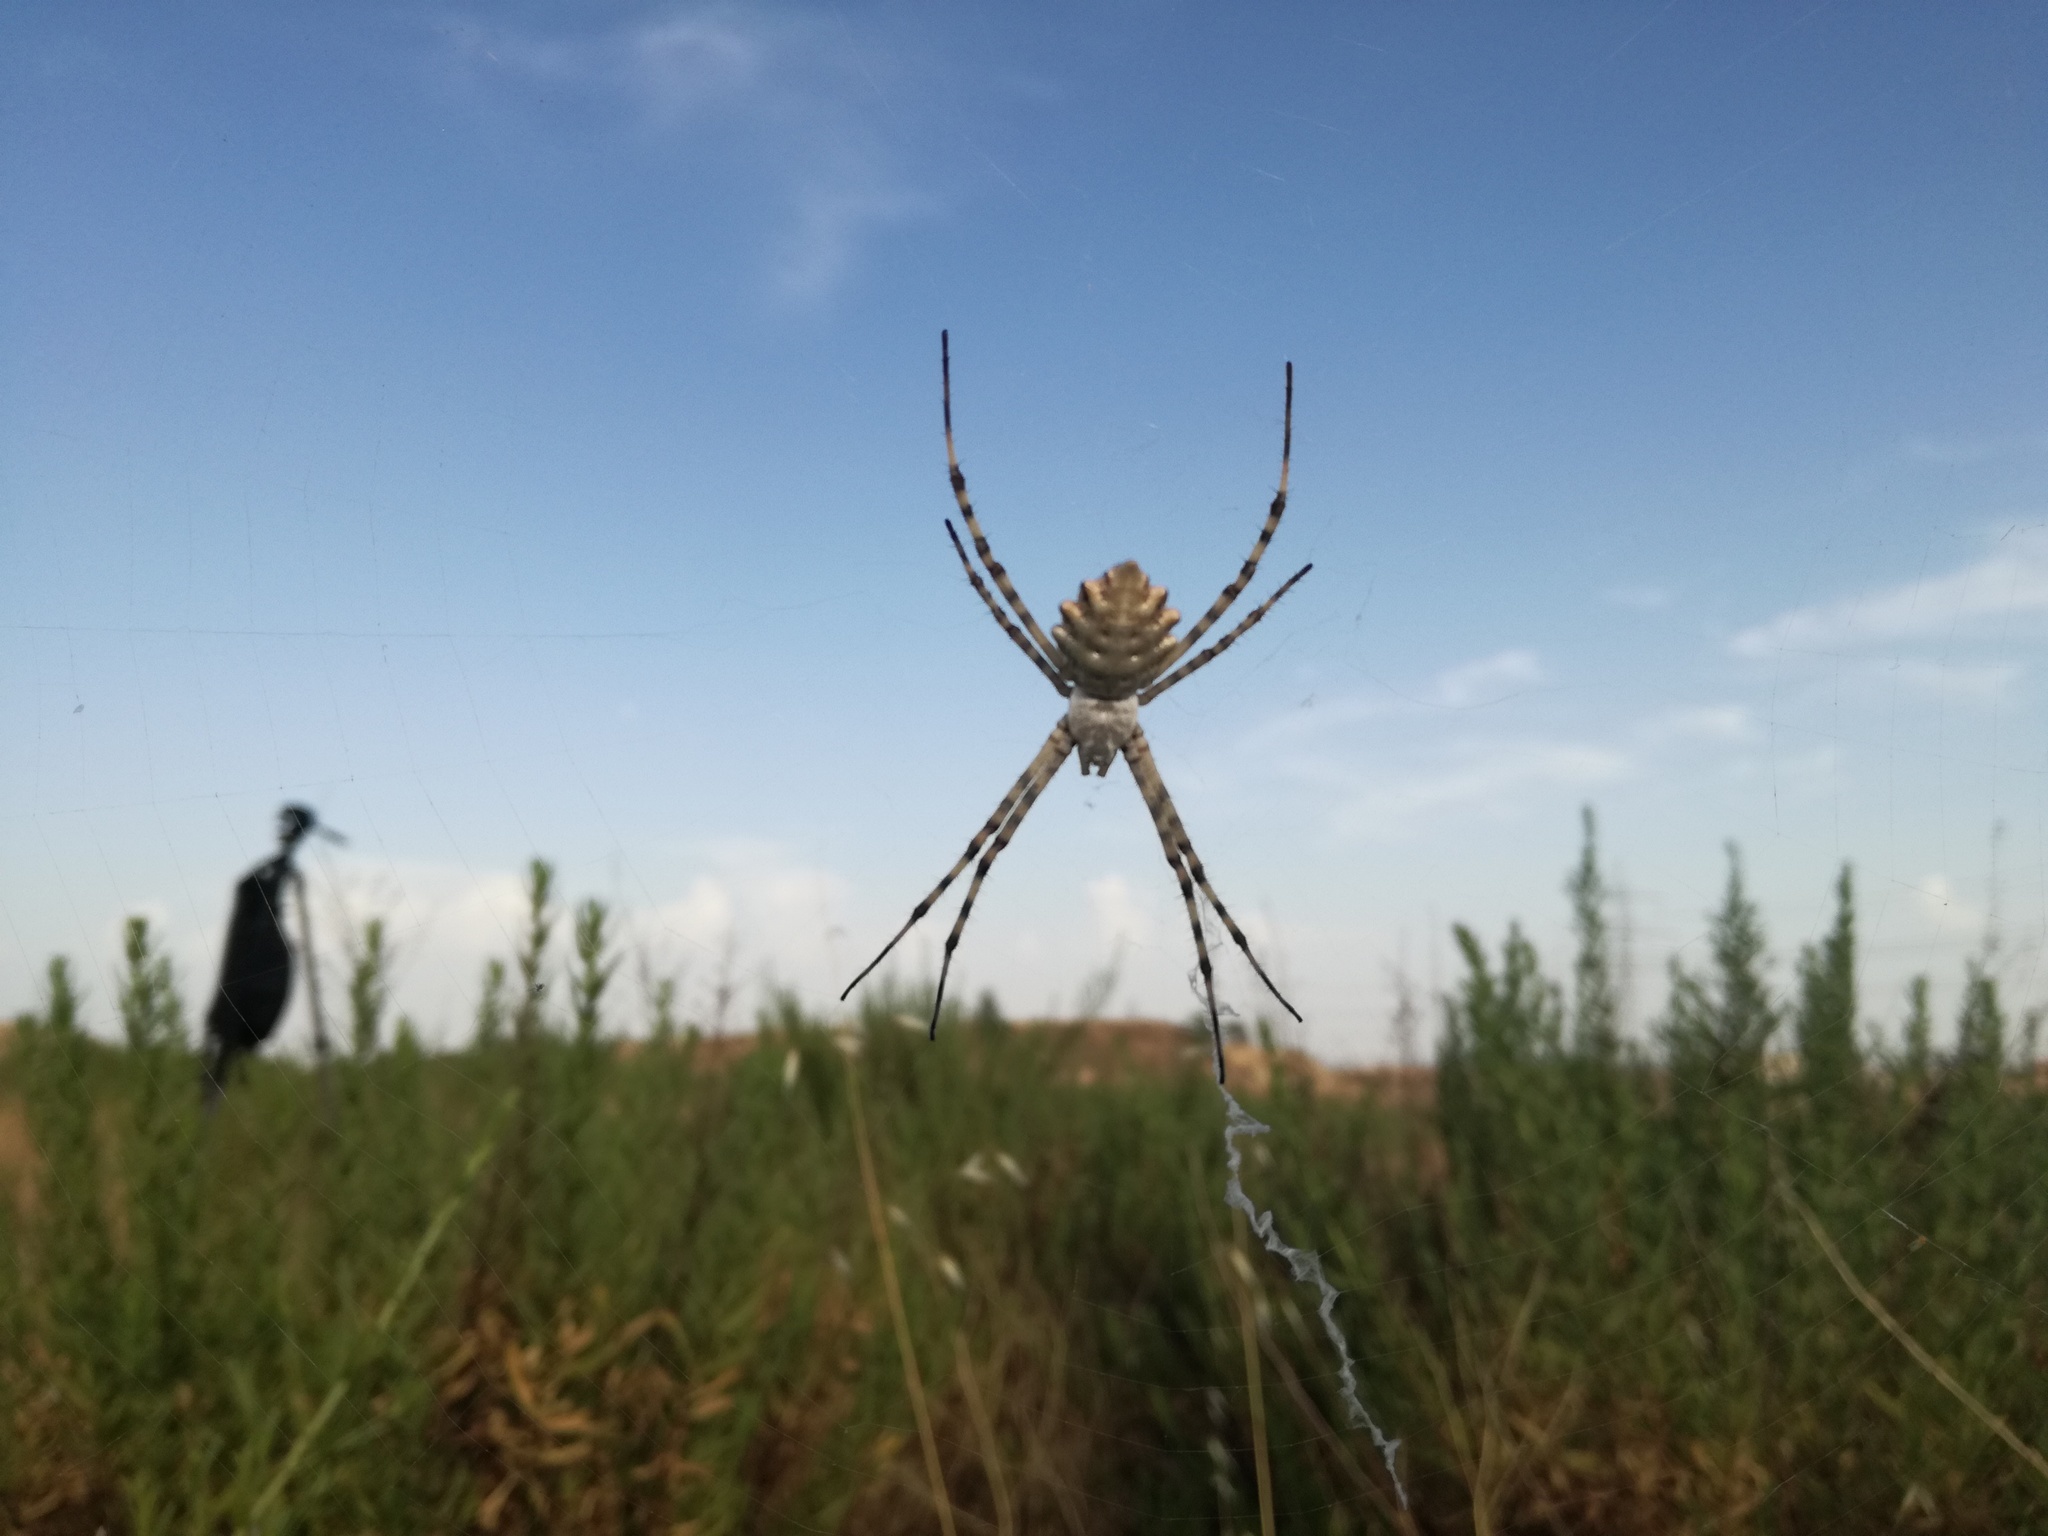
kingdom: Animalia
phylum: Arthropoda
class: Arachnida
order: Araneae
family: Araneidae
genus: Argiope
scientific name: Argiope lobata
